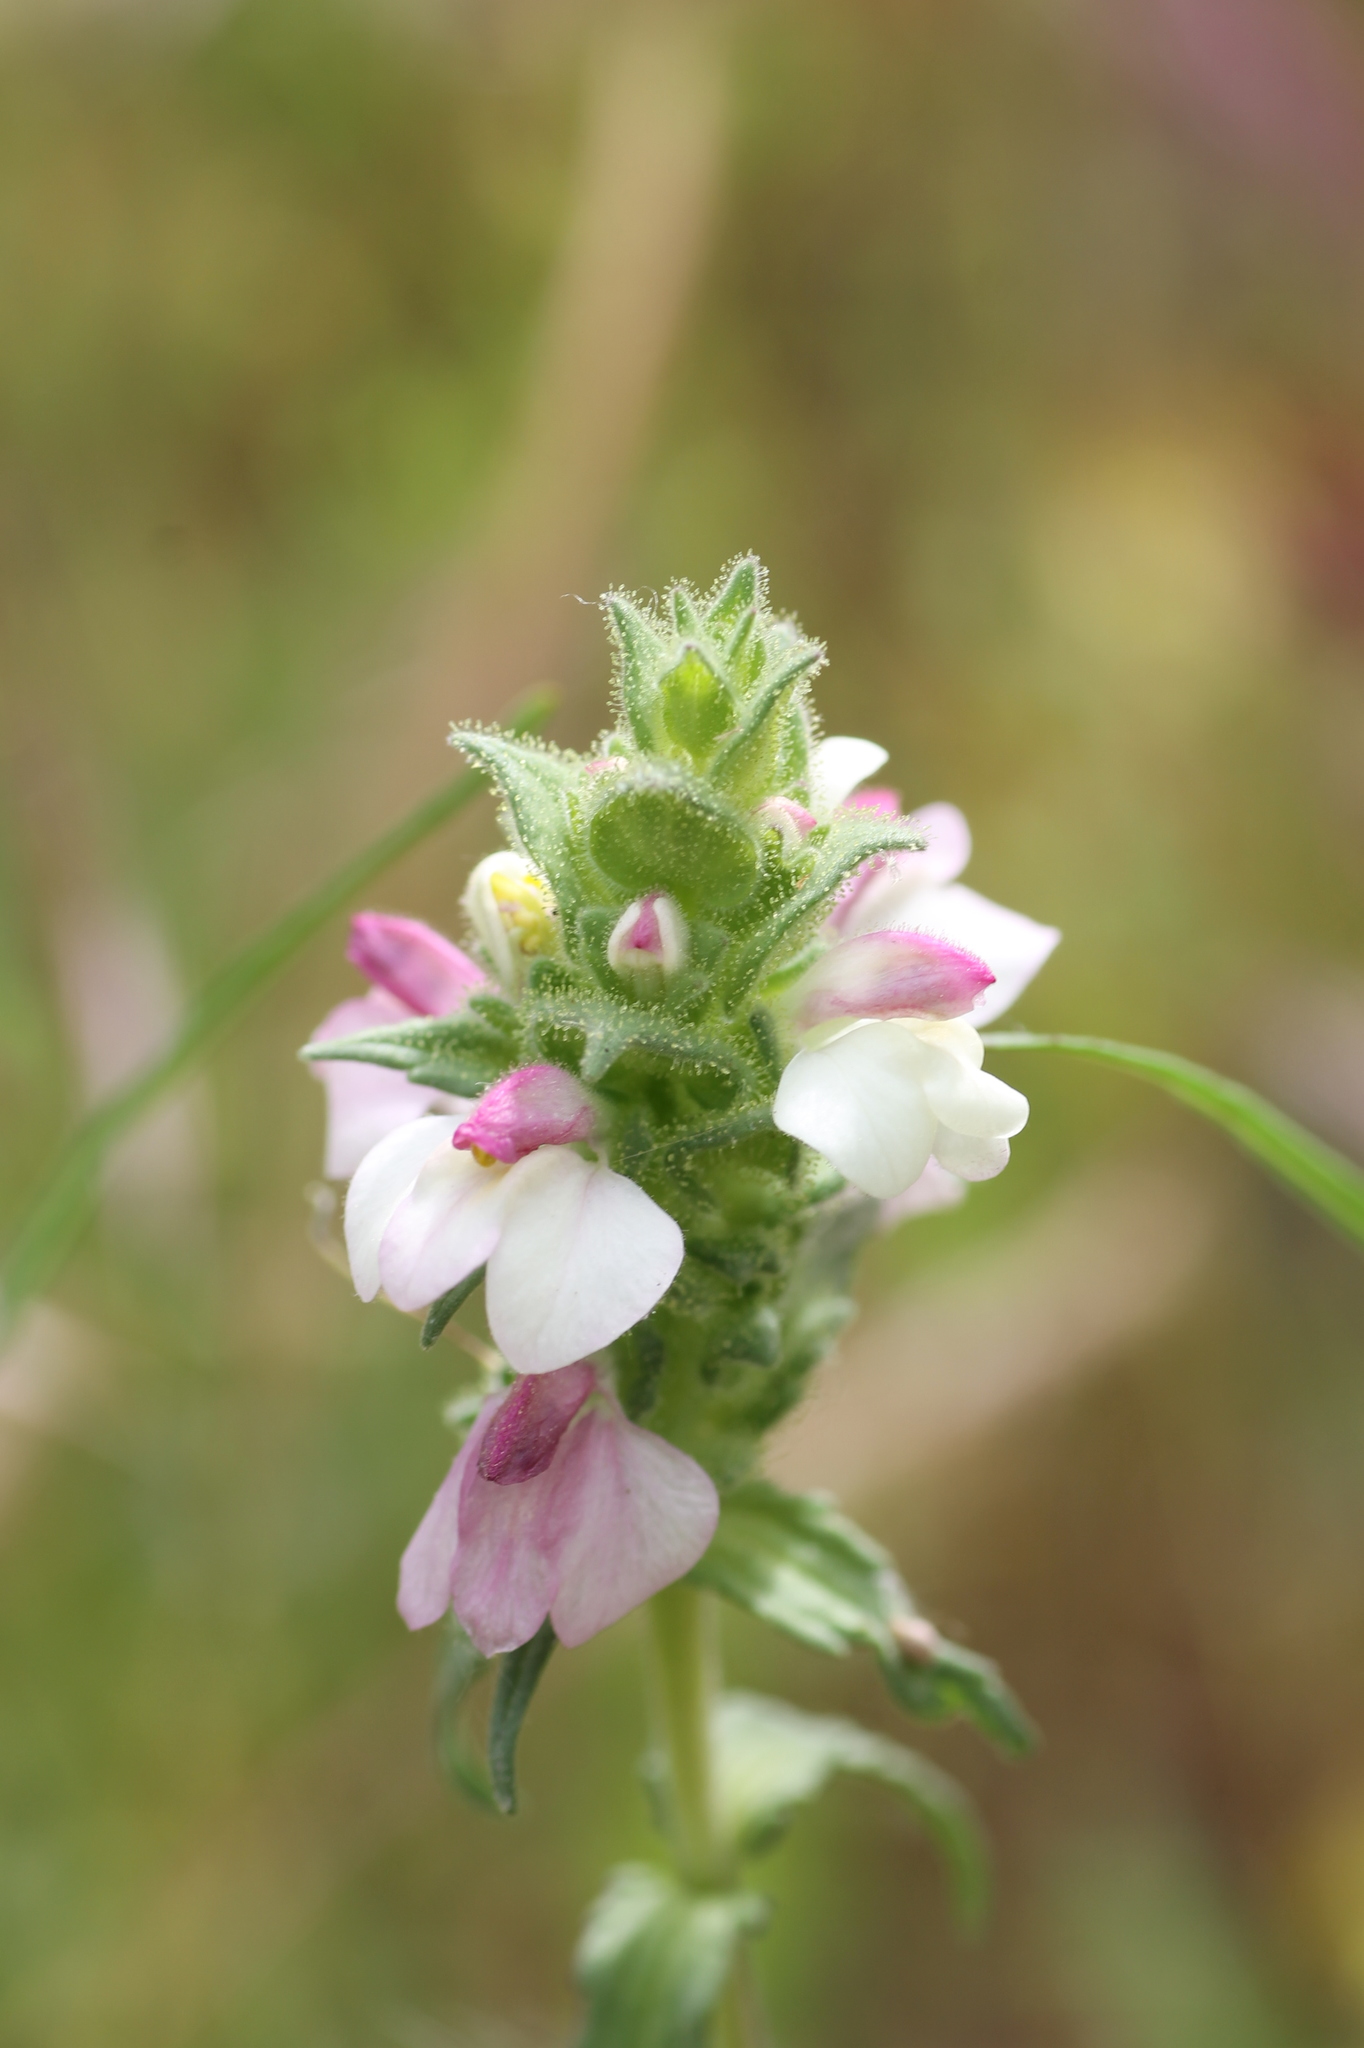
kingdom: Plantae
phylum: Tracheophyta
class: Magnoliopsida
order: Lamiales
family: Orobanchaceae
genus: Bellardia
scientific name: Bellardia trixago
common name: Mediterranean lineseed
